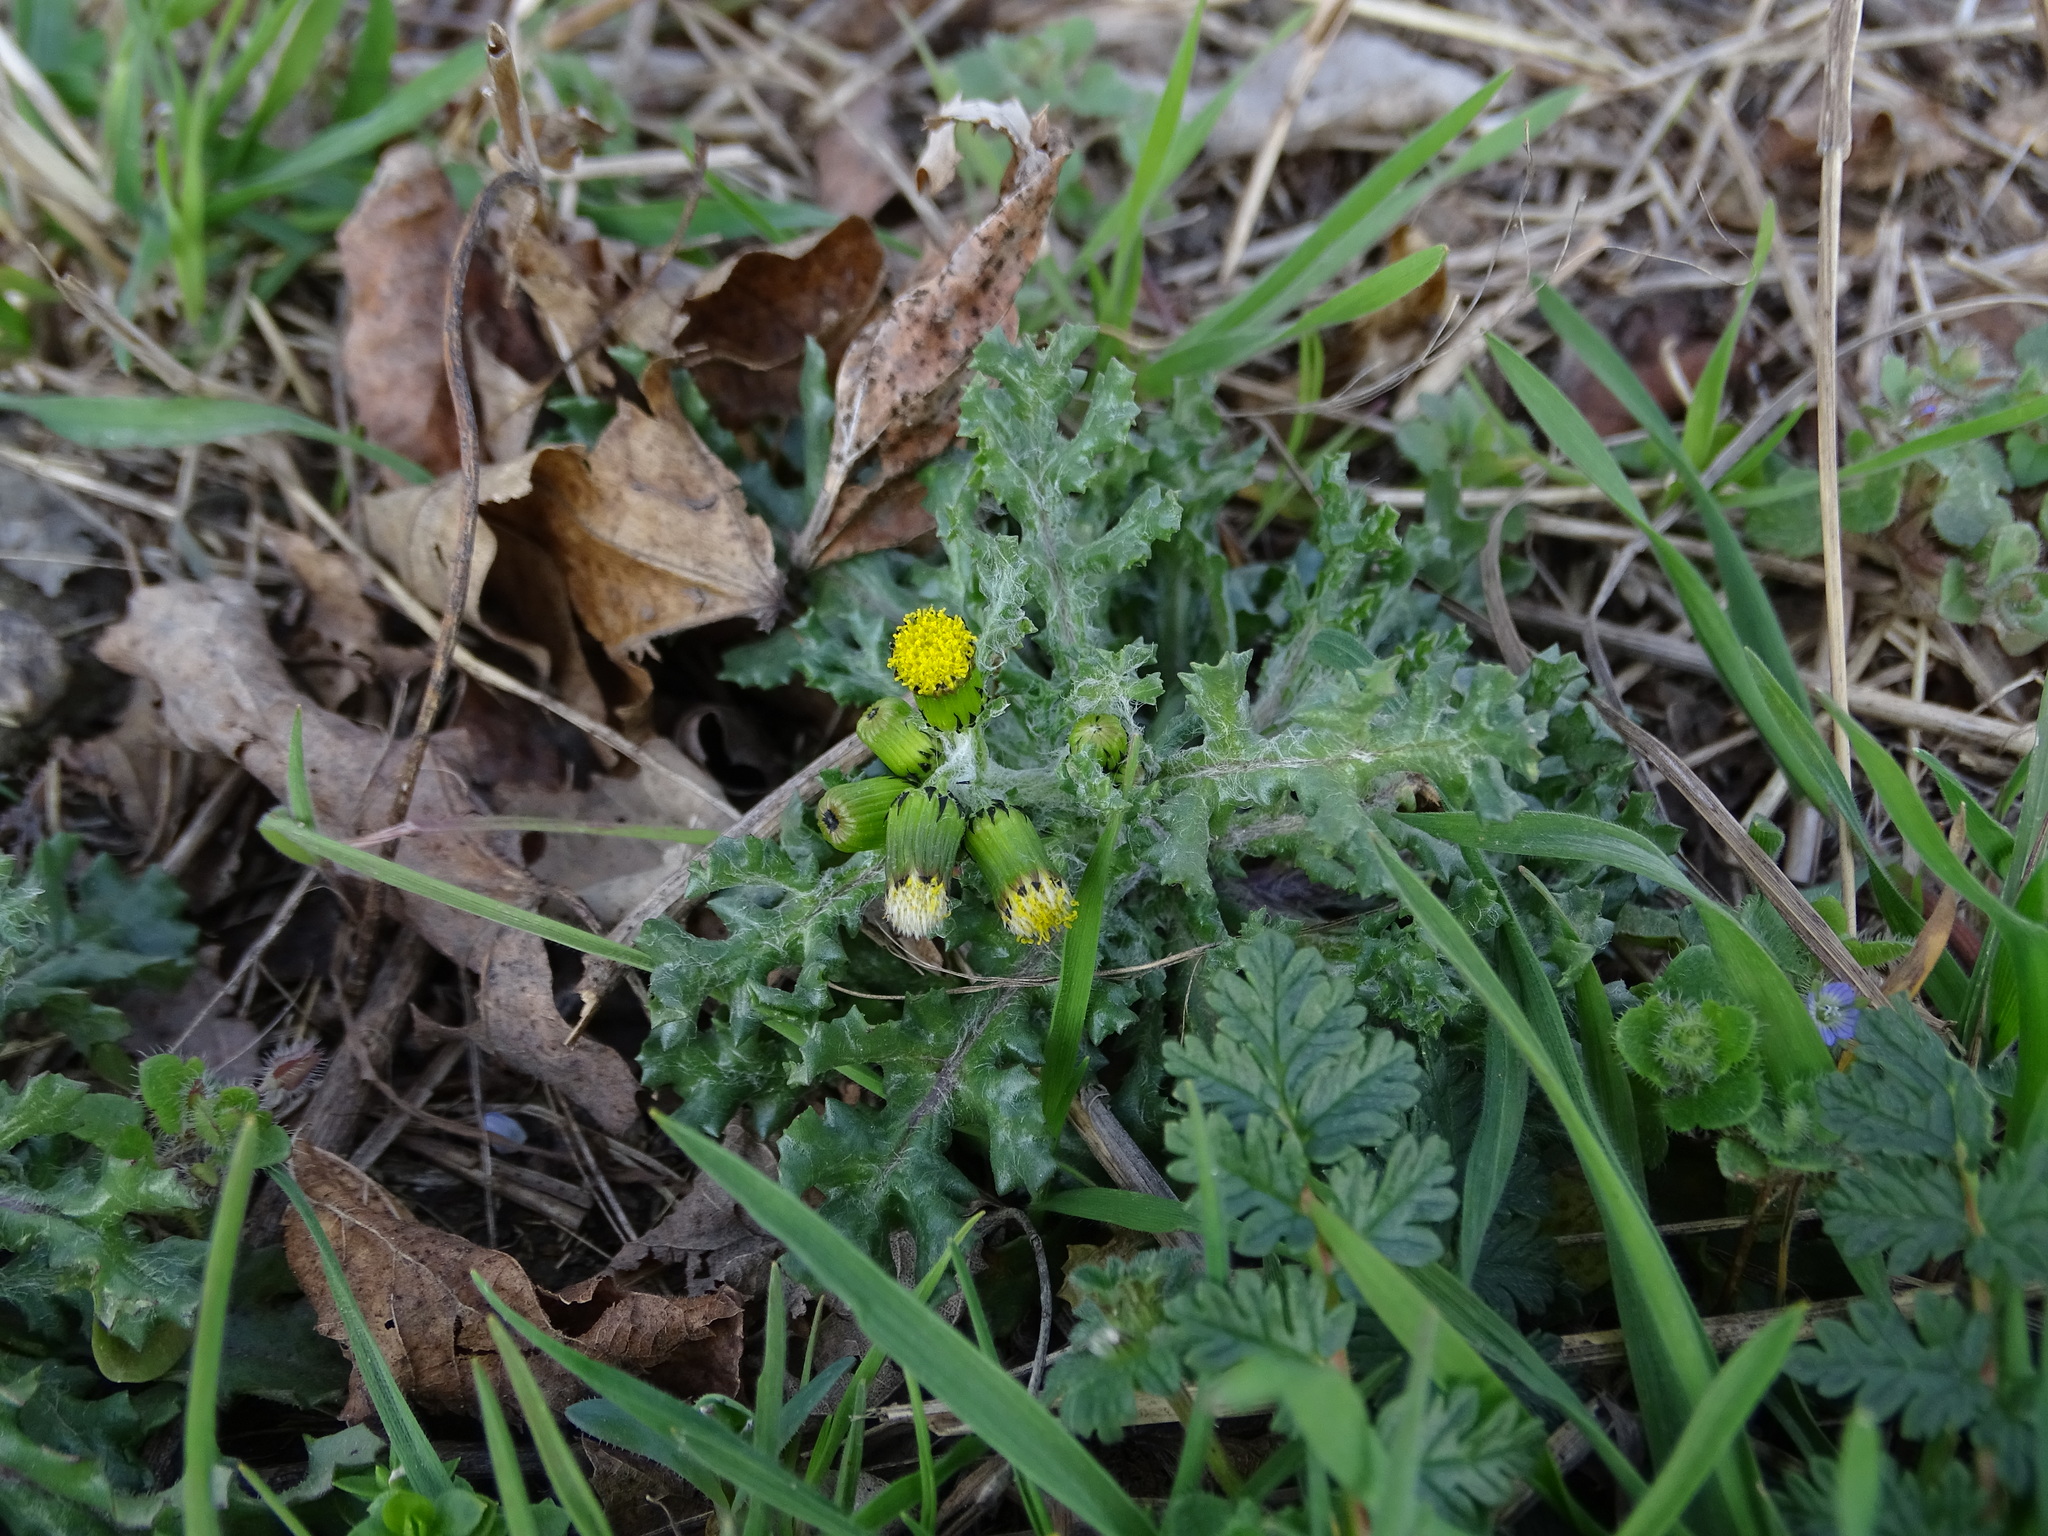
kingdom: Plantae
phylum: Tracheophyta
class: Magnoliopsida
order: Asterales
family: Asteraceae
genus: Senecio
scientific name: Senecio vulgaris
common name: Old-man-in-the-spring
